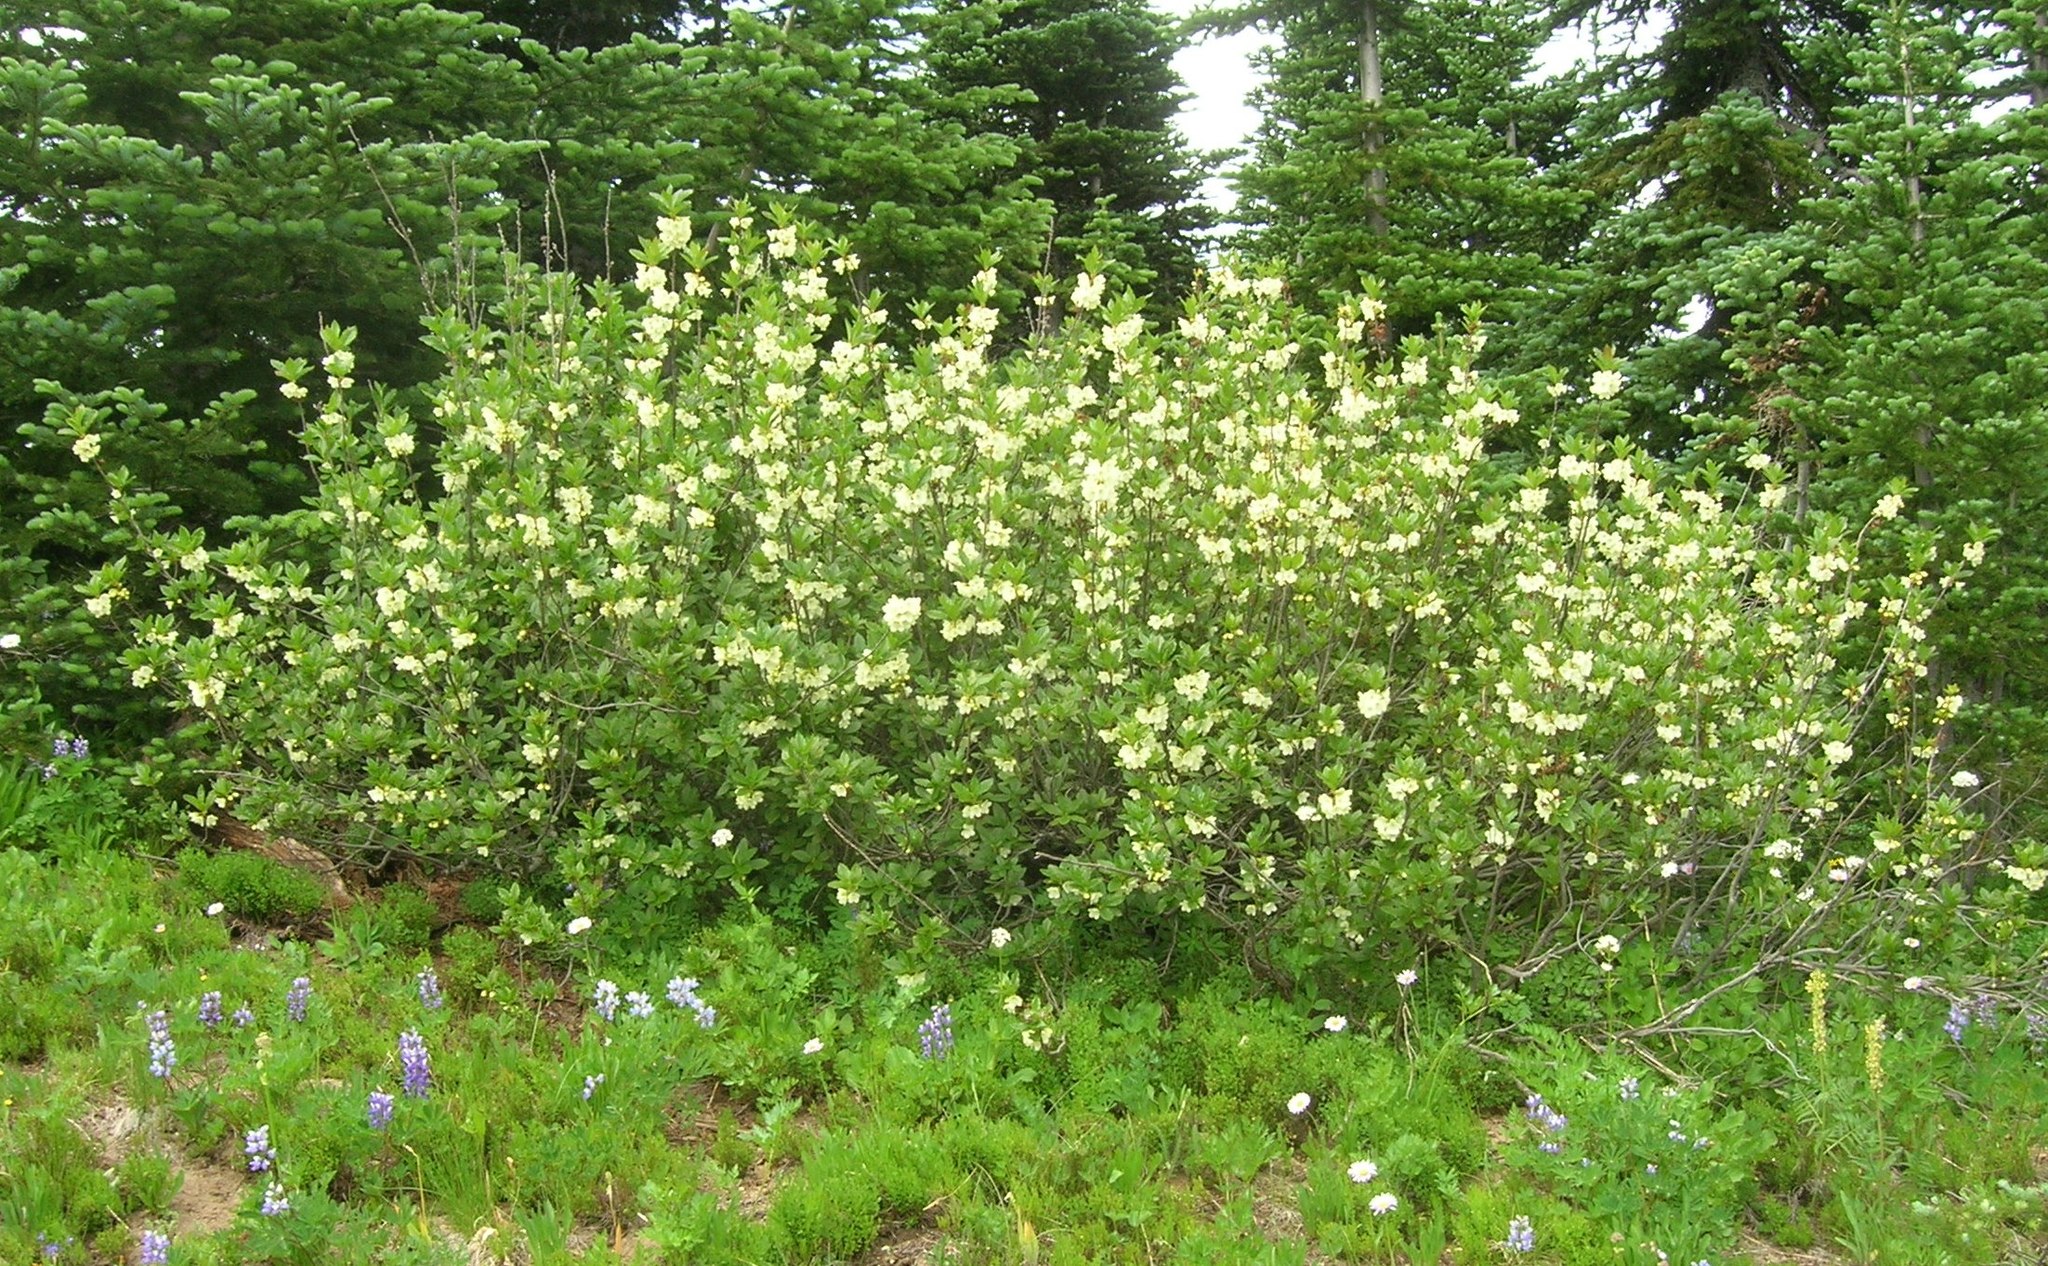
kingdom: Plantae
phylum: Tracheophyta
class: Magnoliopsida
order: Ericales
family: Ericaceae
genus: Rhododendron
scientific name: Rhododendron albiflorum
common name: White rhododendron
